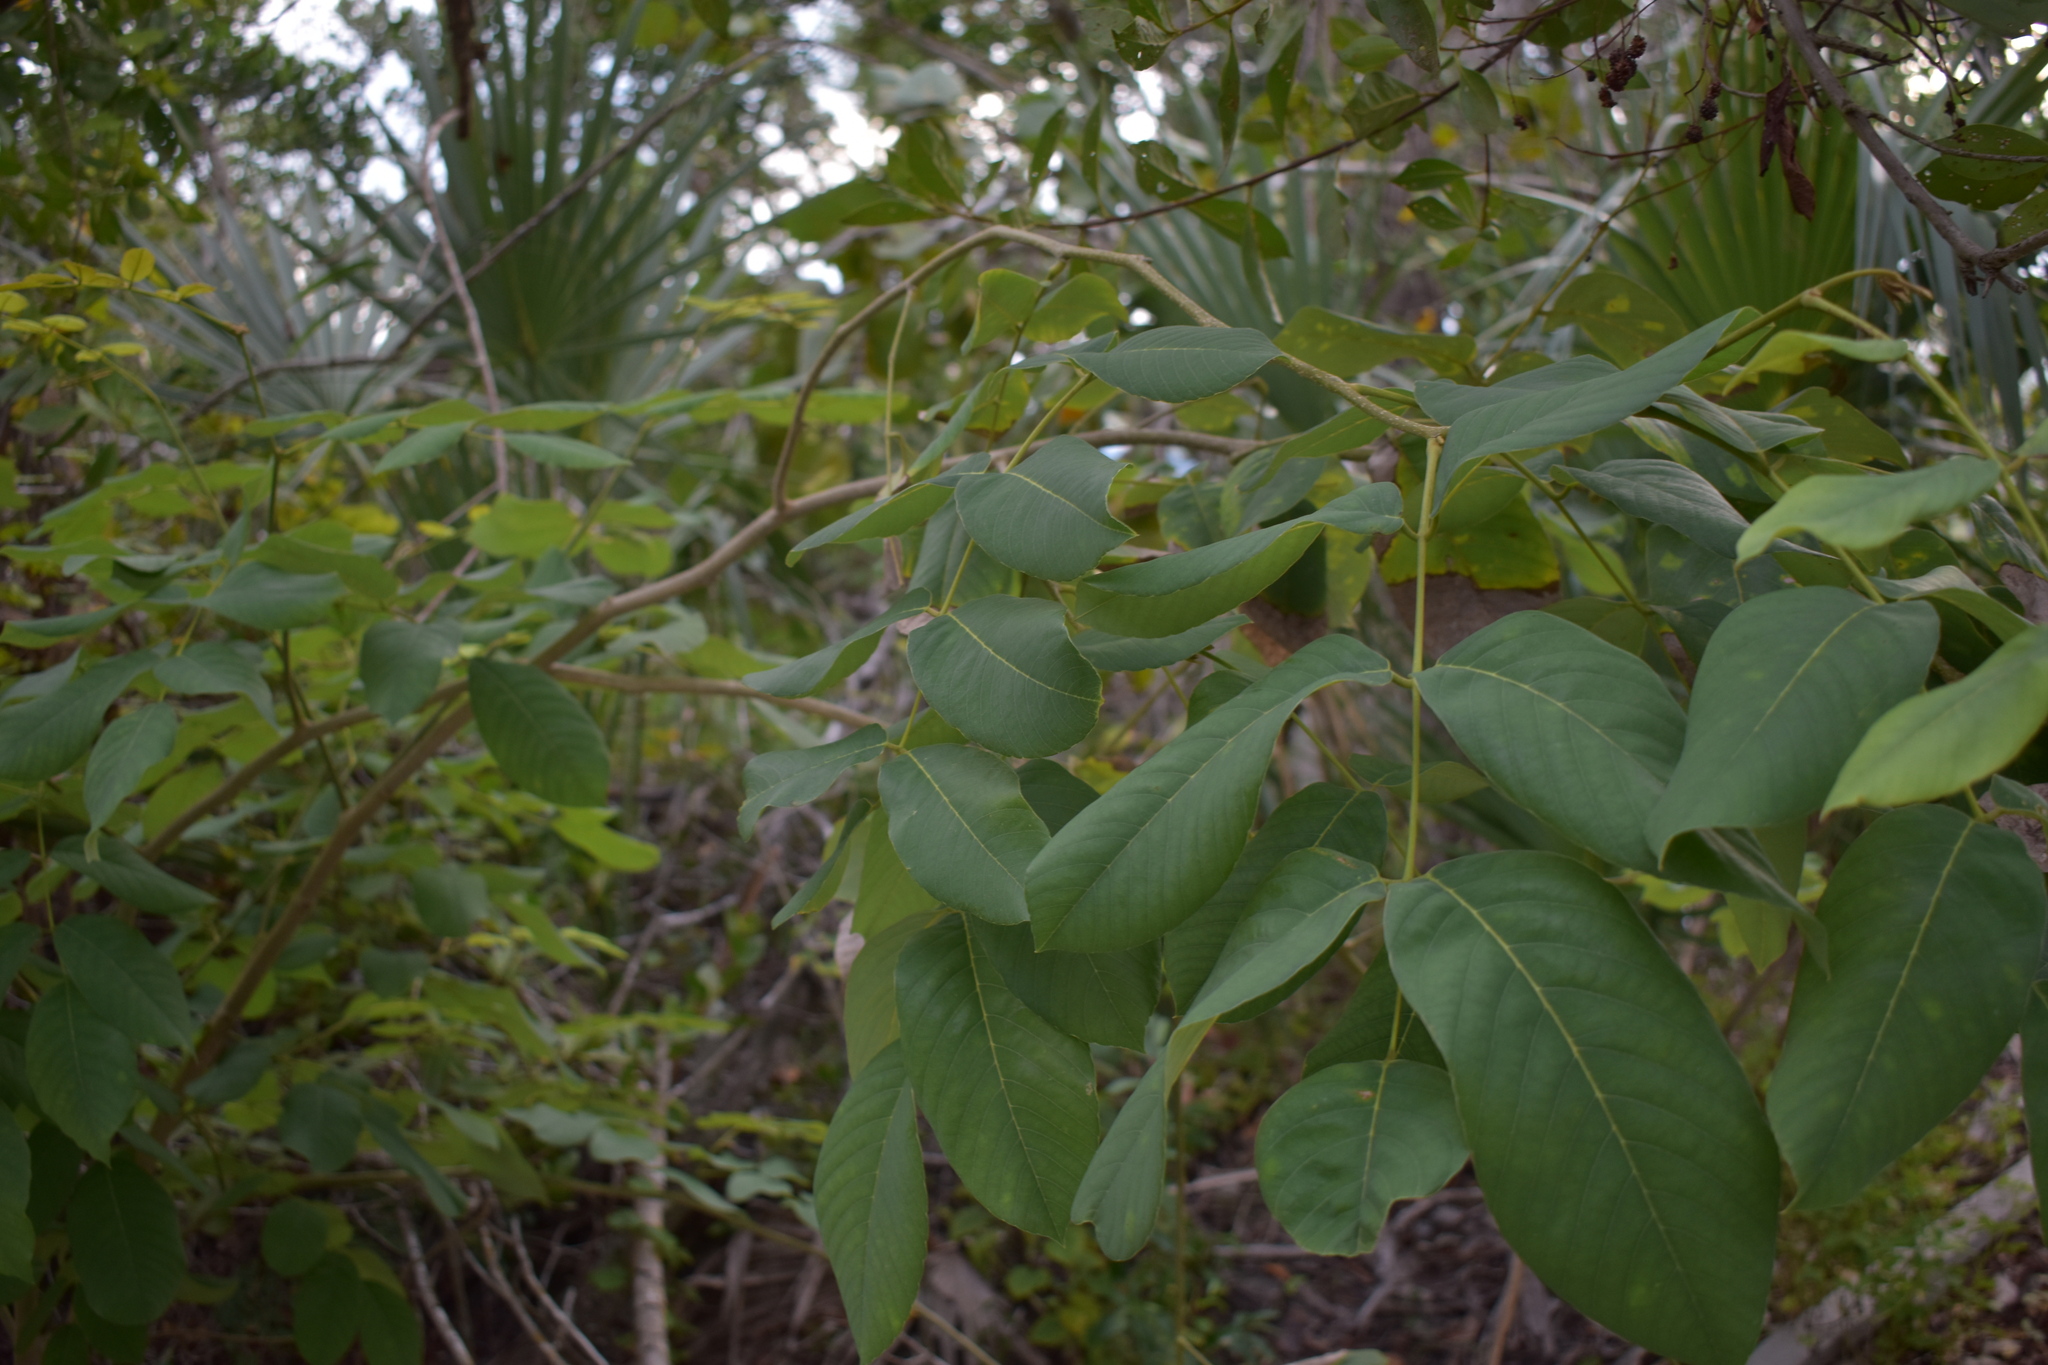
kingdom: Plantae
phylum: Tracheophyta
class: Magnoliopsida
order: Fabales
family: Fabaceae
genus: Piscidia
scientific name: Piscidia piscipula
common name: Florida fishpoison tree
